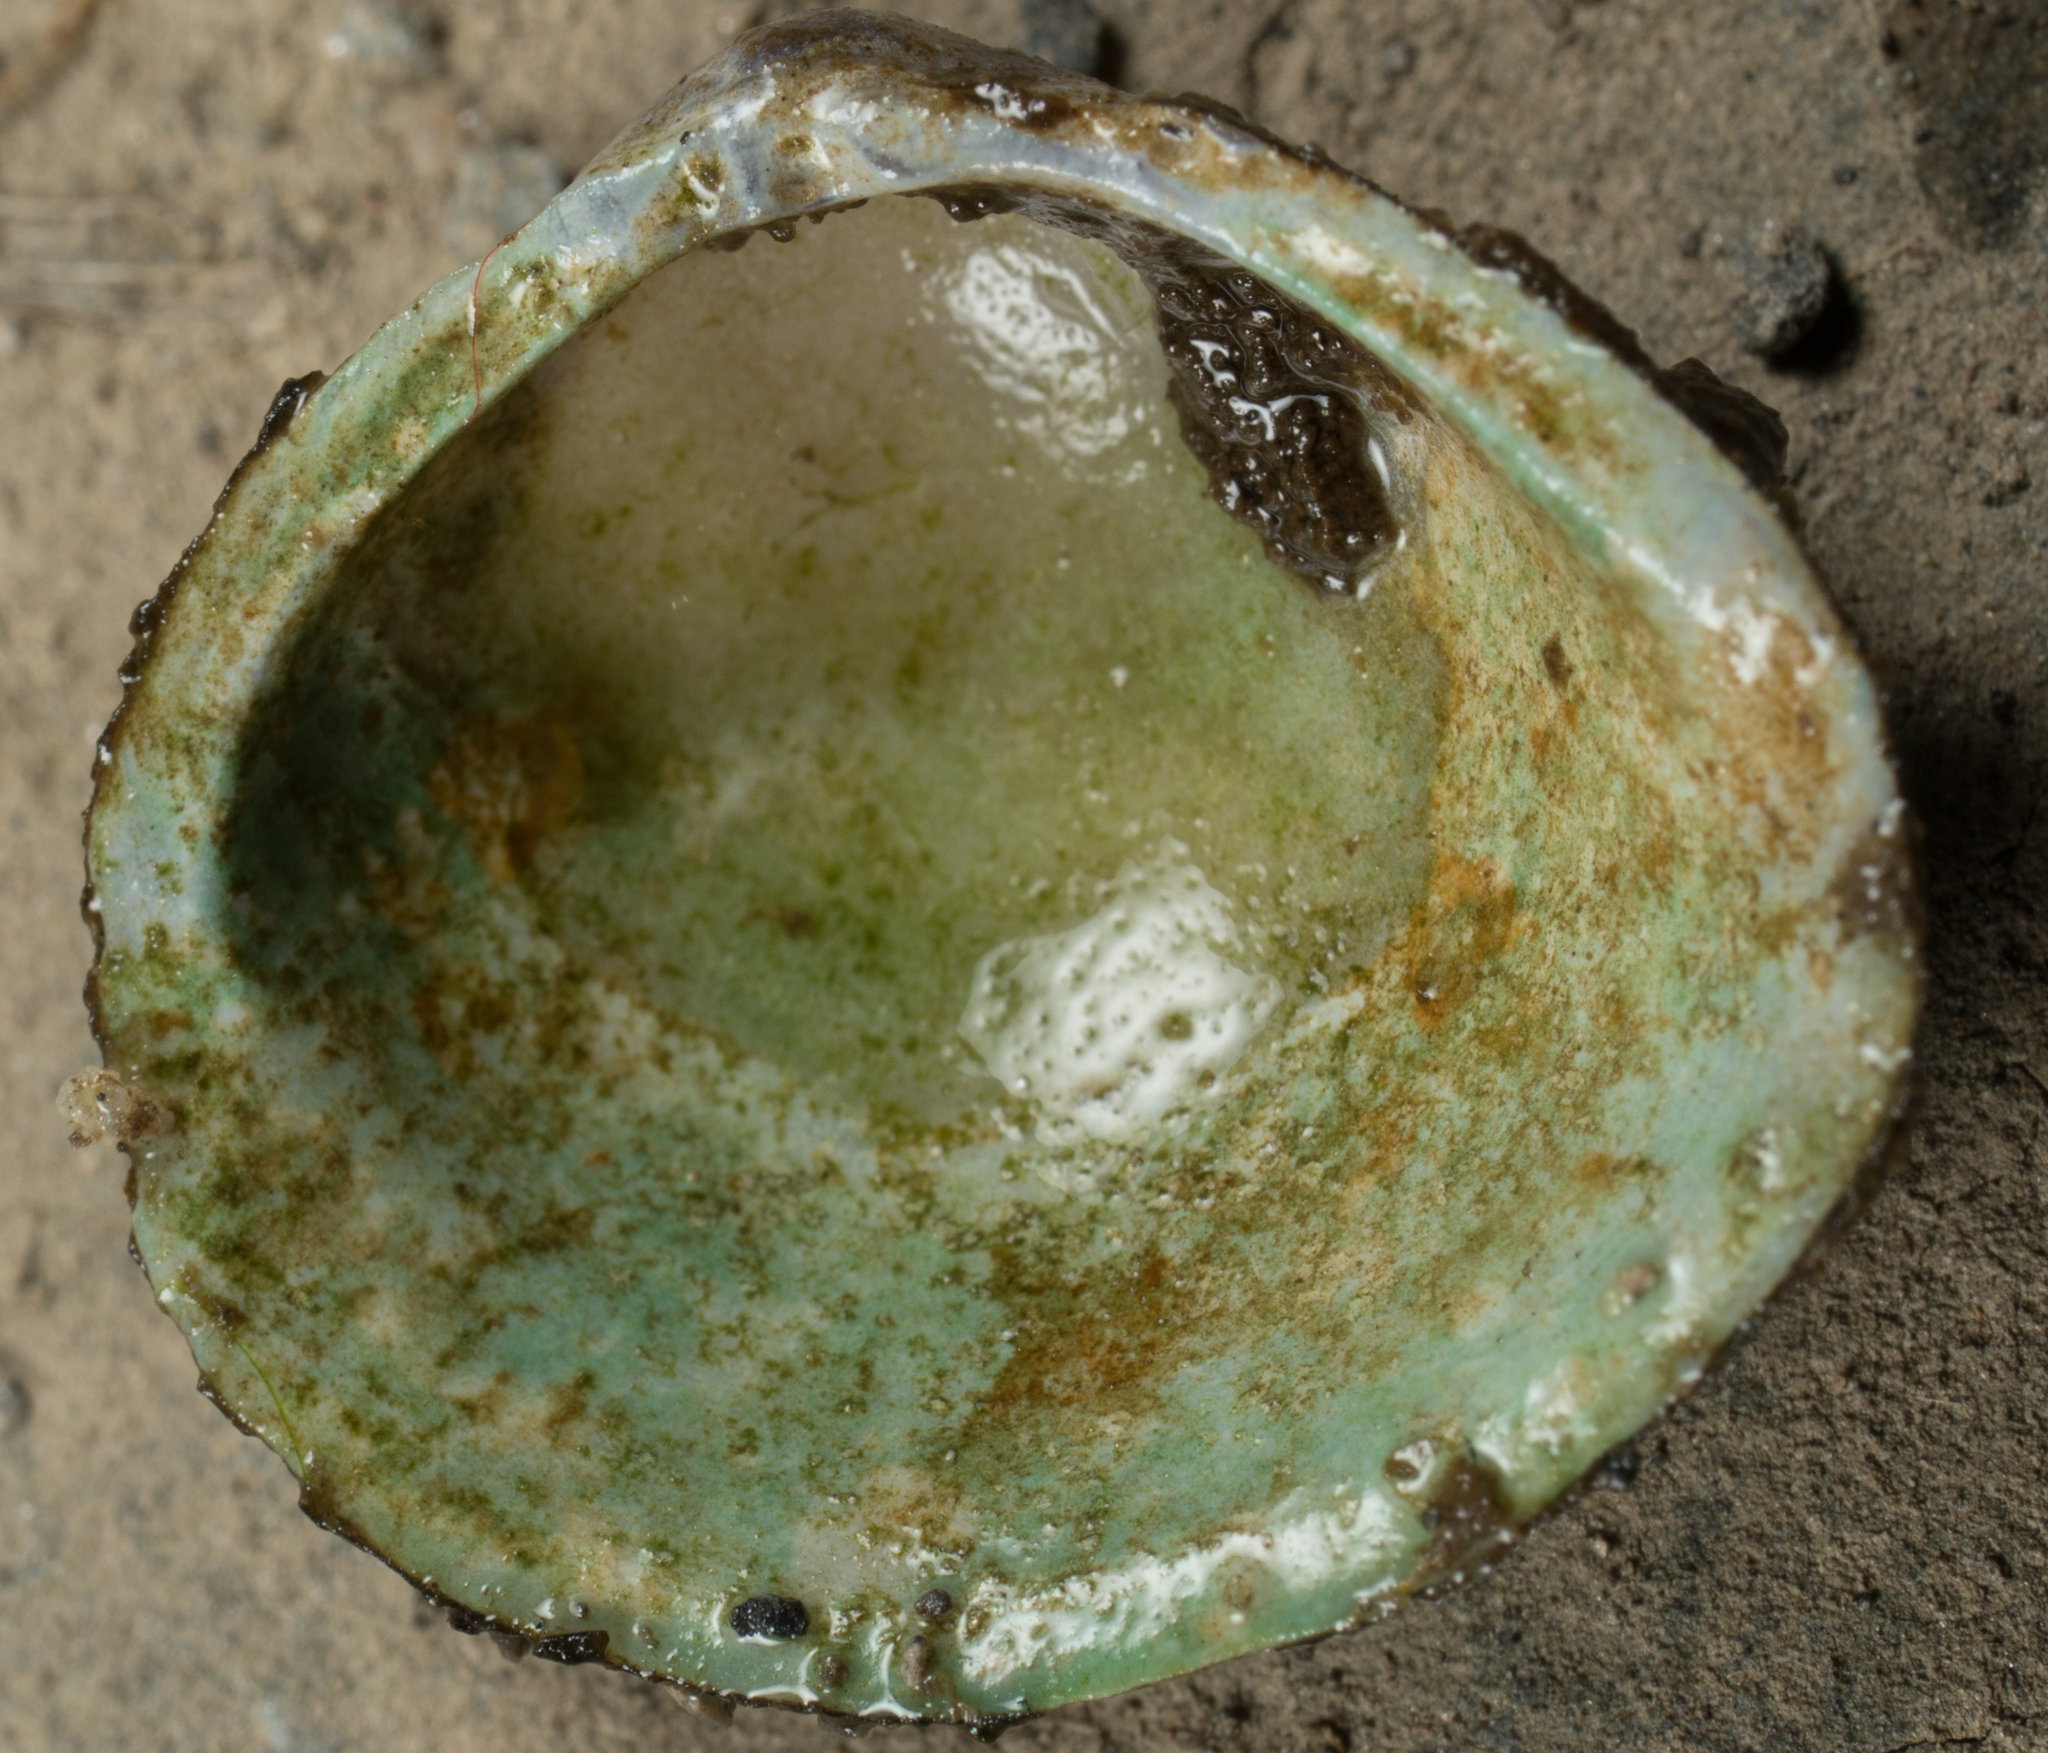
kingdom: Animalia
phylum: Mollusca
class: Bivalvia
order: Venerida
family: Cyrenidae
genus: Corbicula
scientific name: Corbicula fluminea
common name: Asian clam
